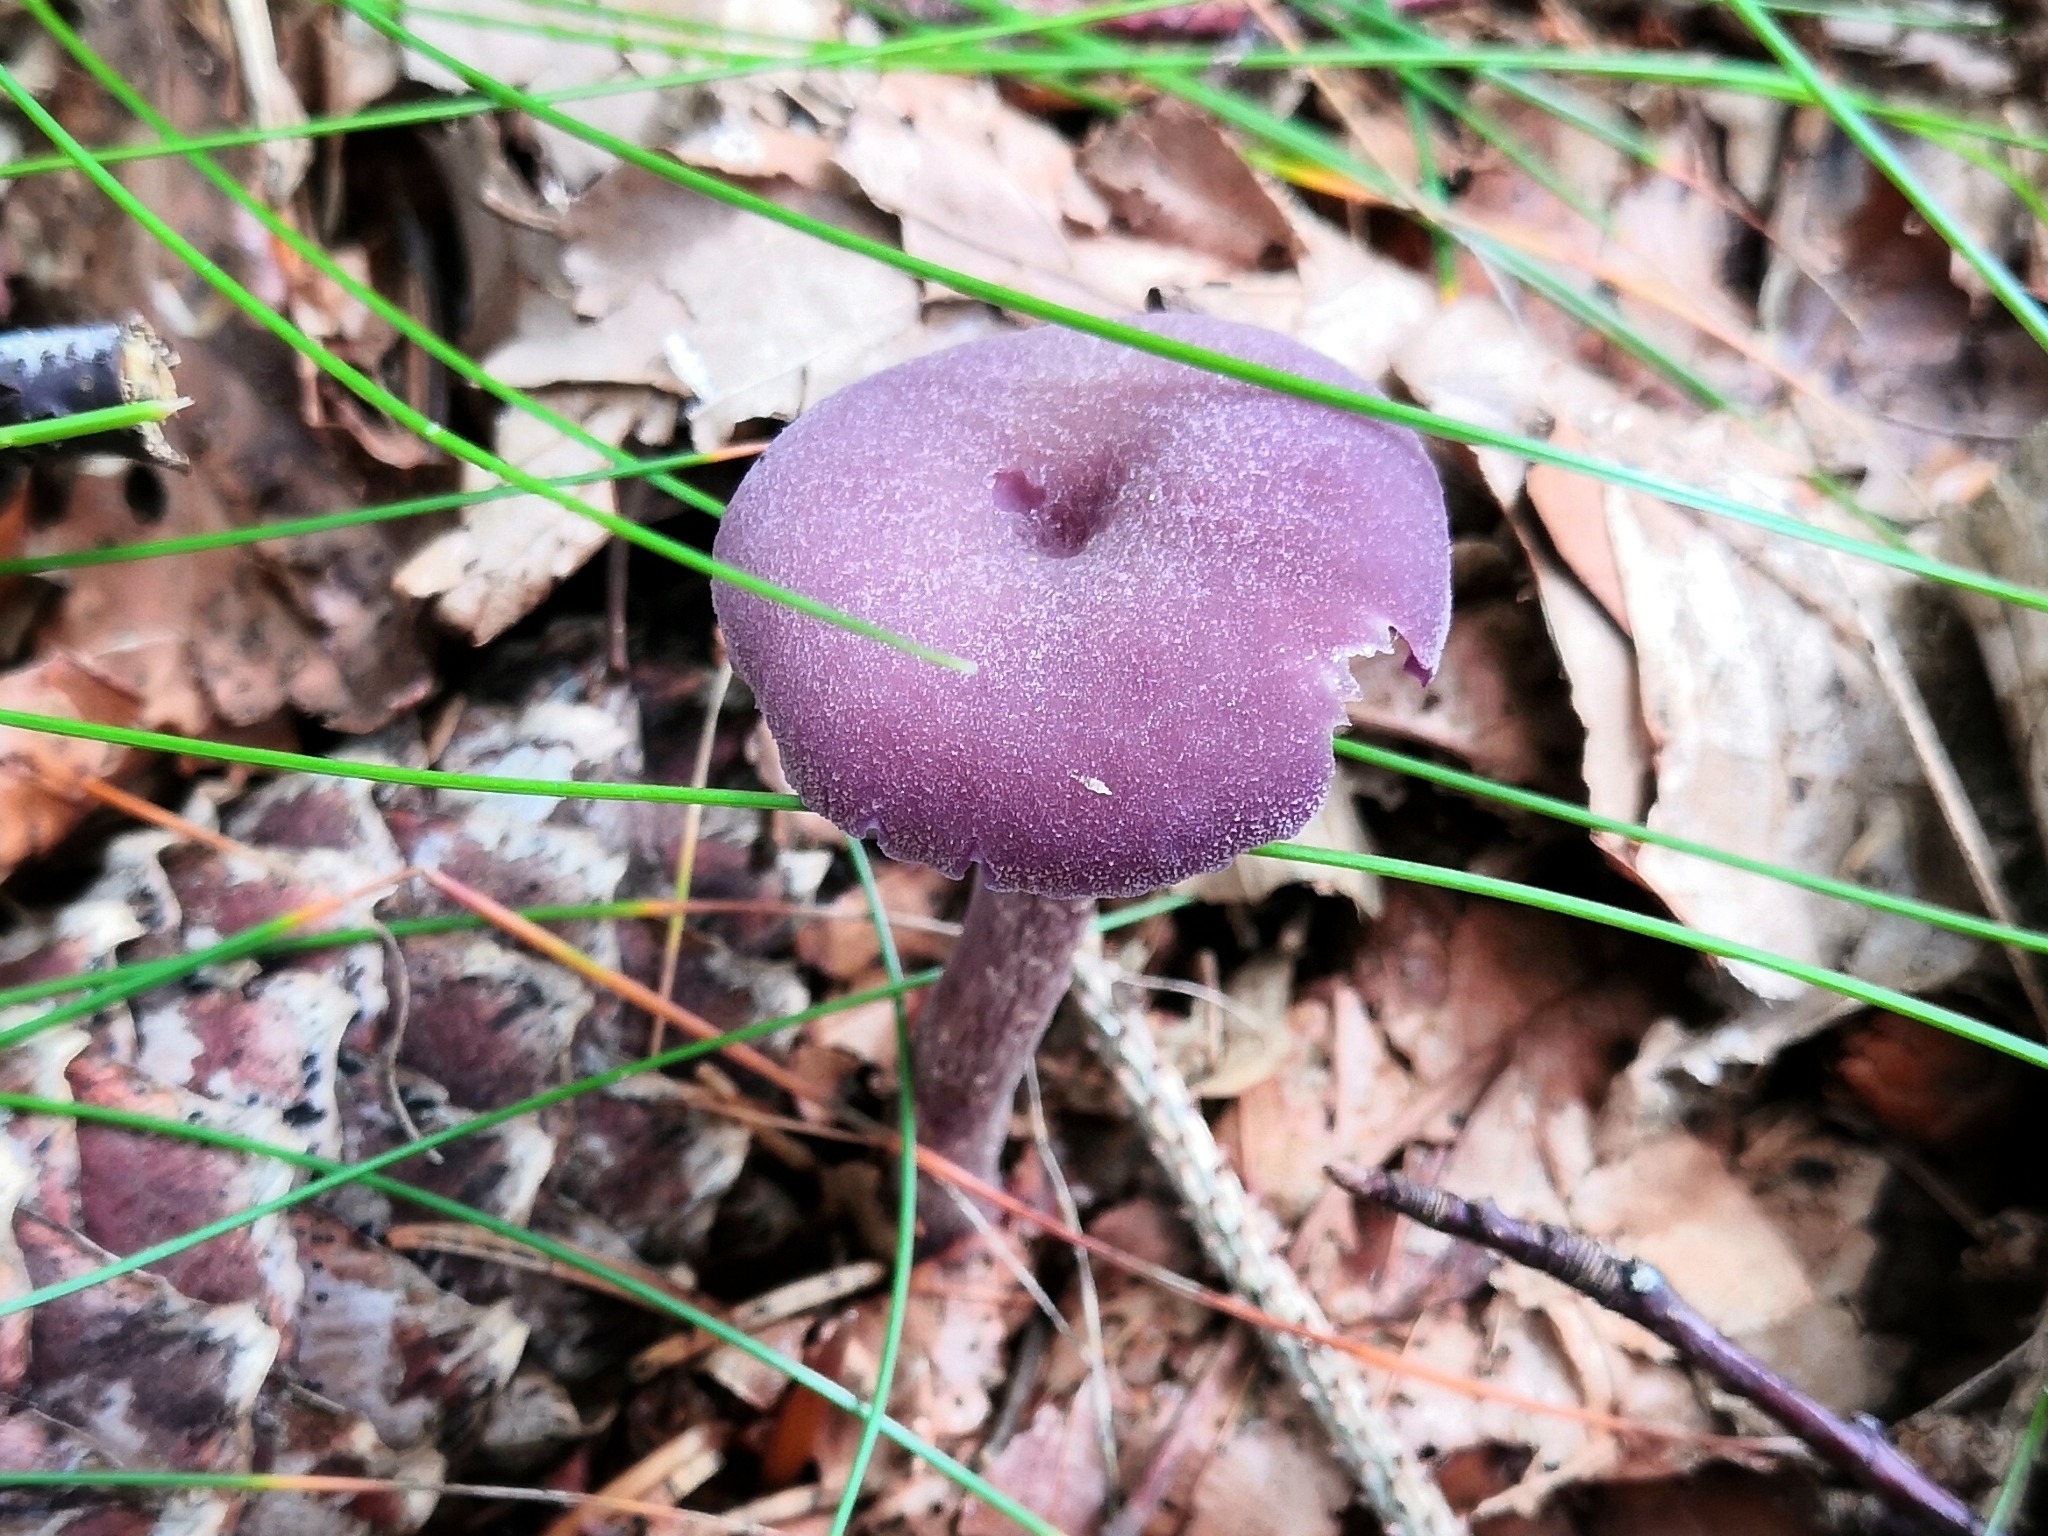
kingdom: Fungi
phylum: Basidiomycota
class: Agaricomycetes
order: Agaricales
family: Hydnangiaceae
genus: Laccaria
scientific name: Laccaria amethystina
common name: Amethyst deceiver
